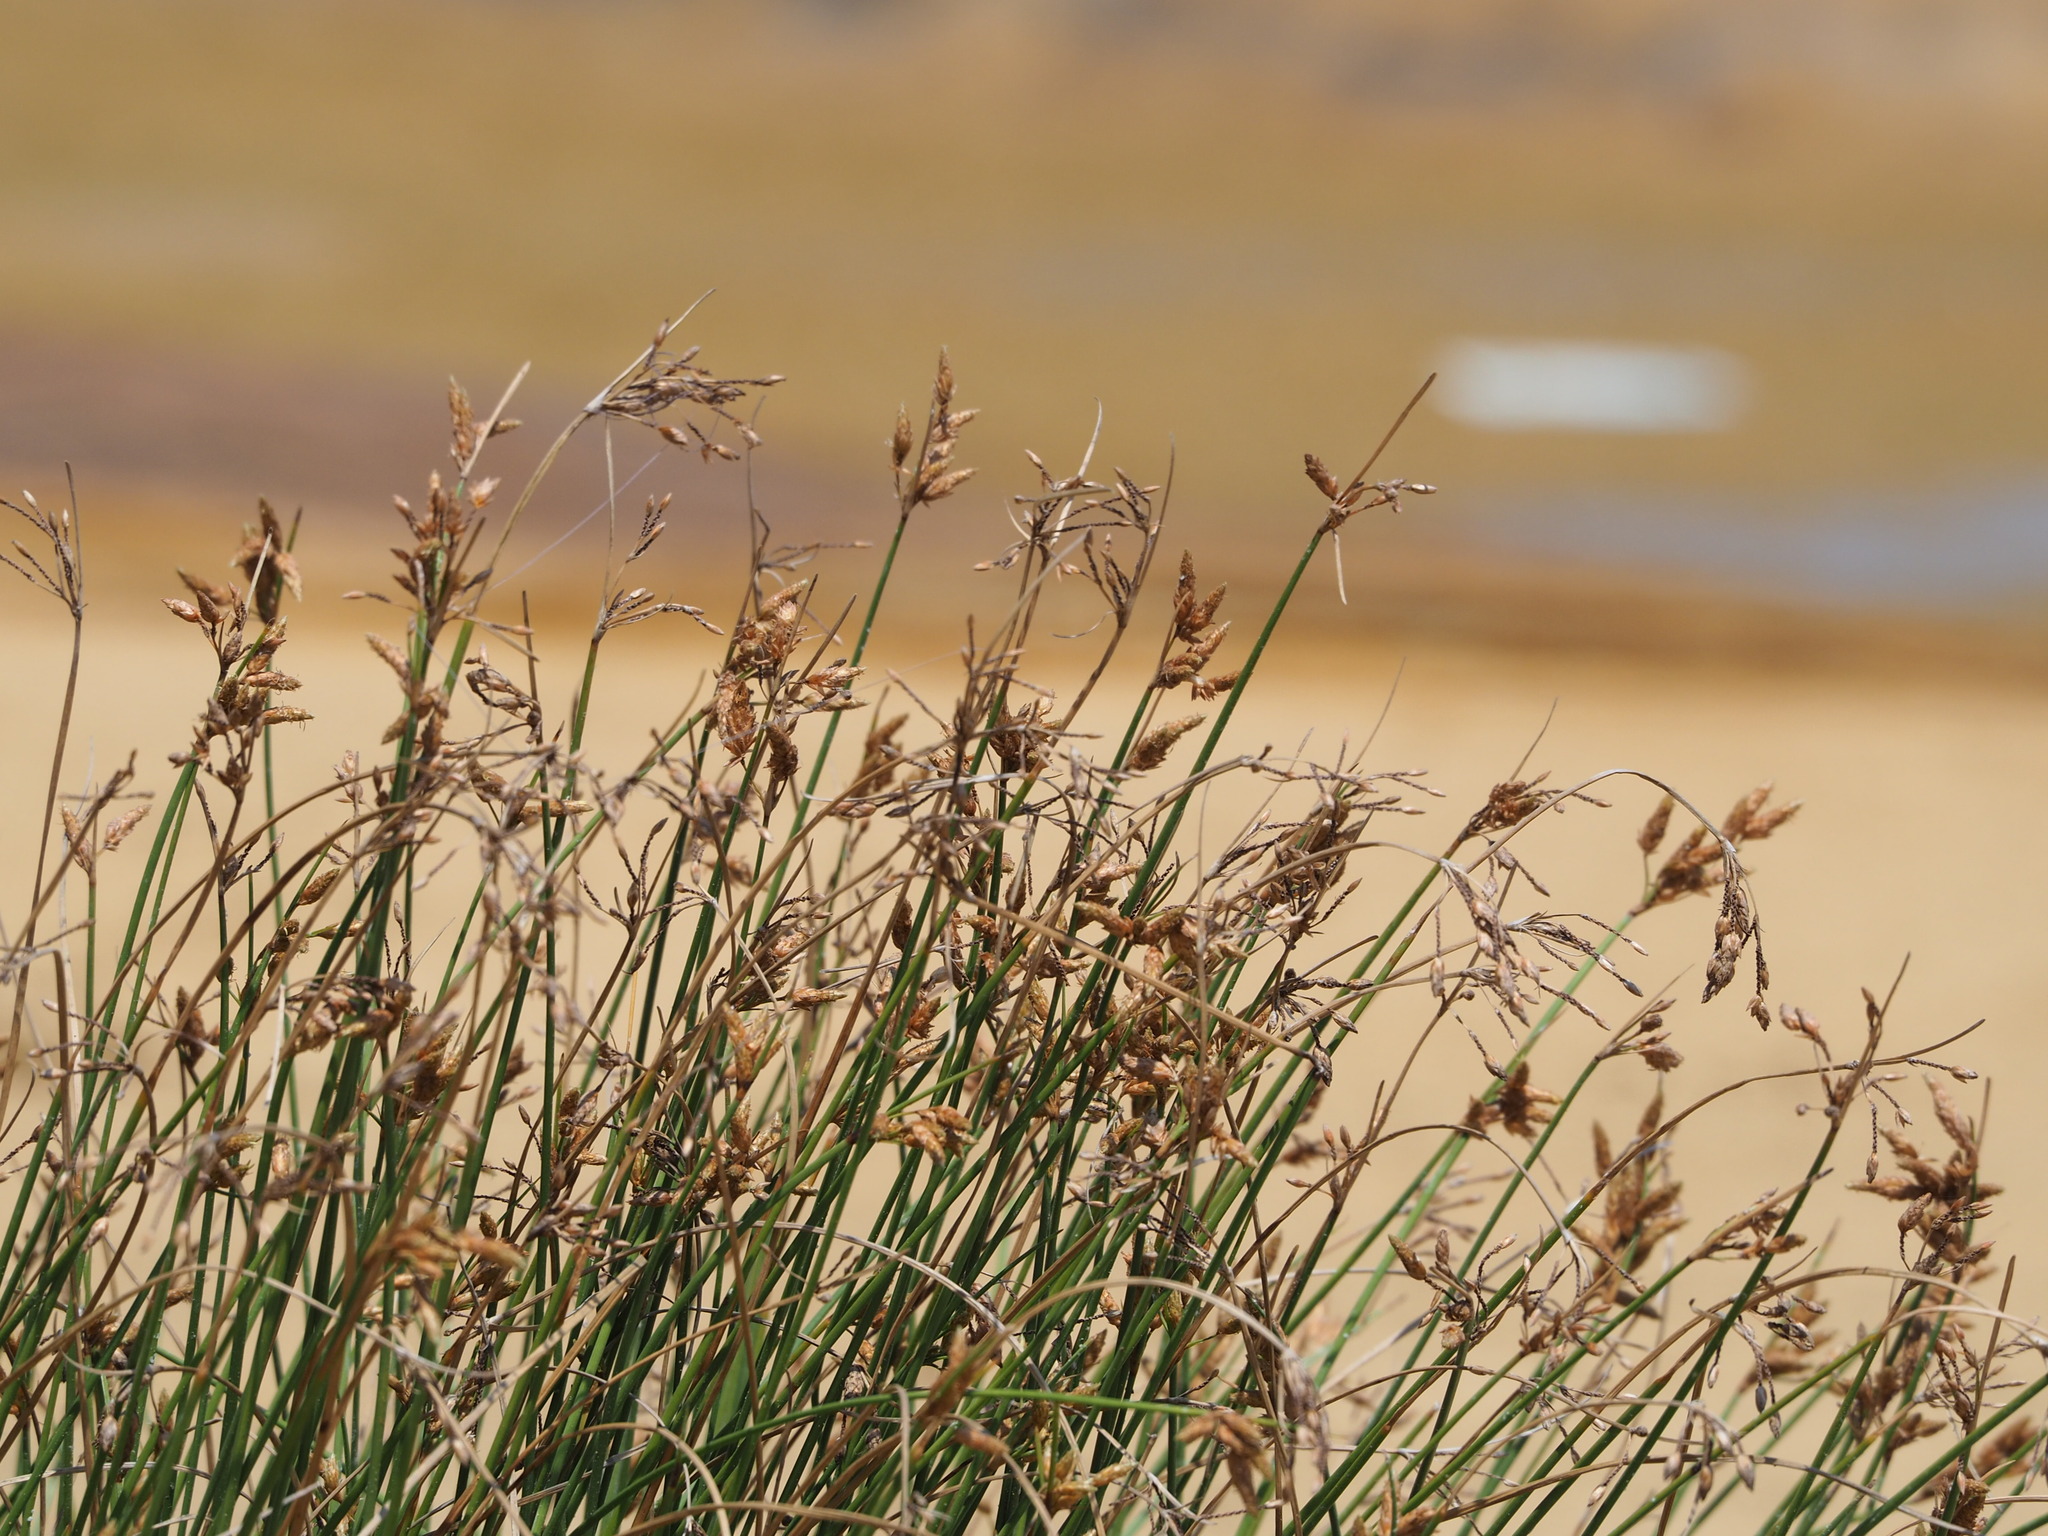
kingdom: Plantae
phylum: Tracheophyta
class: Liliopsida
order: Poales
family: Cyperaceae
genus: Fimbristylis
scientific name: Fimbristylis sieboldii
